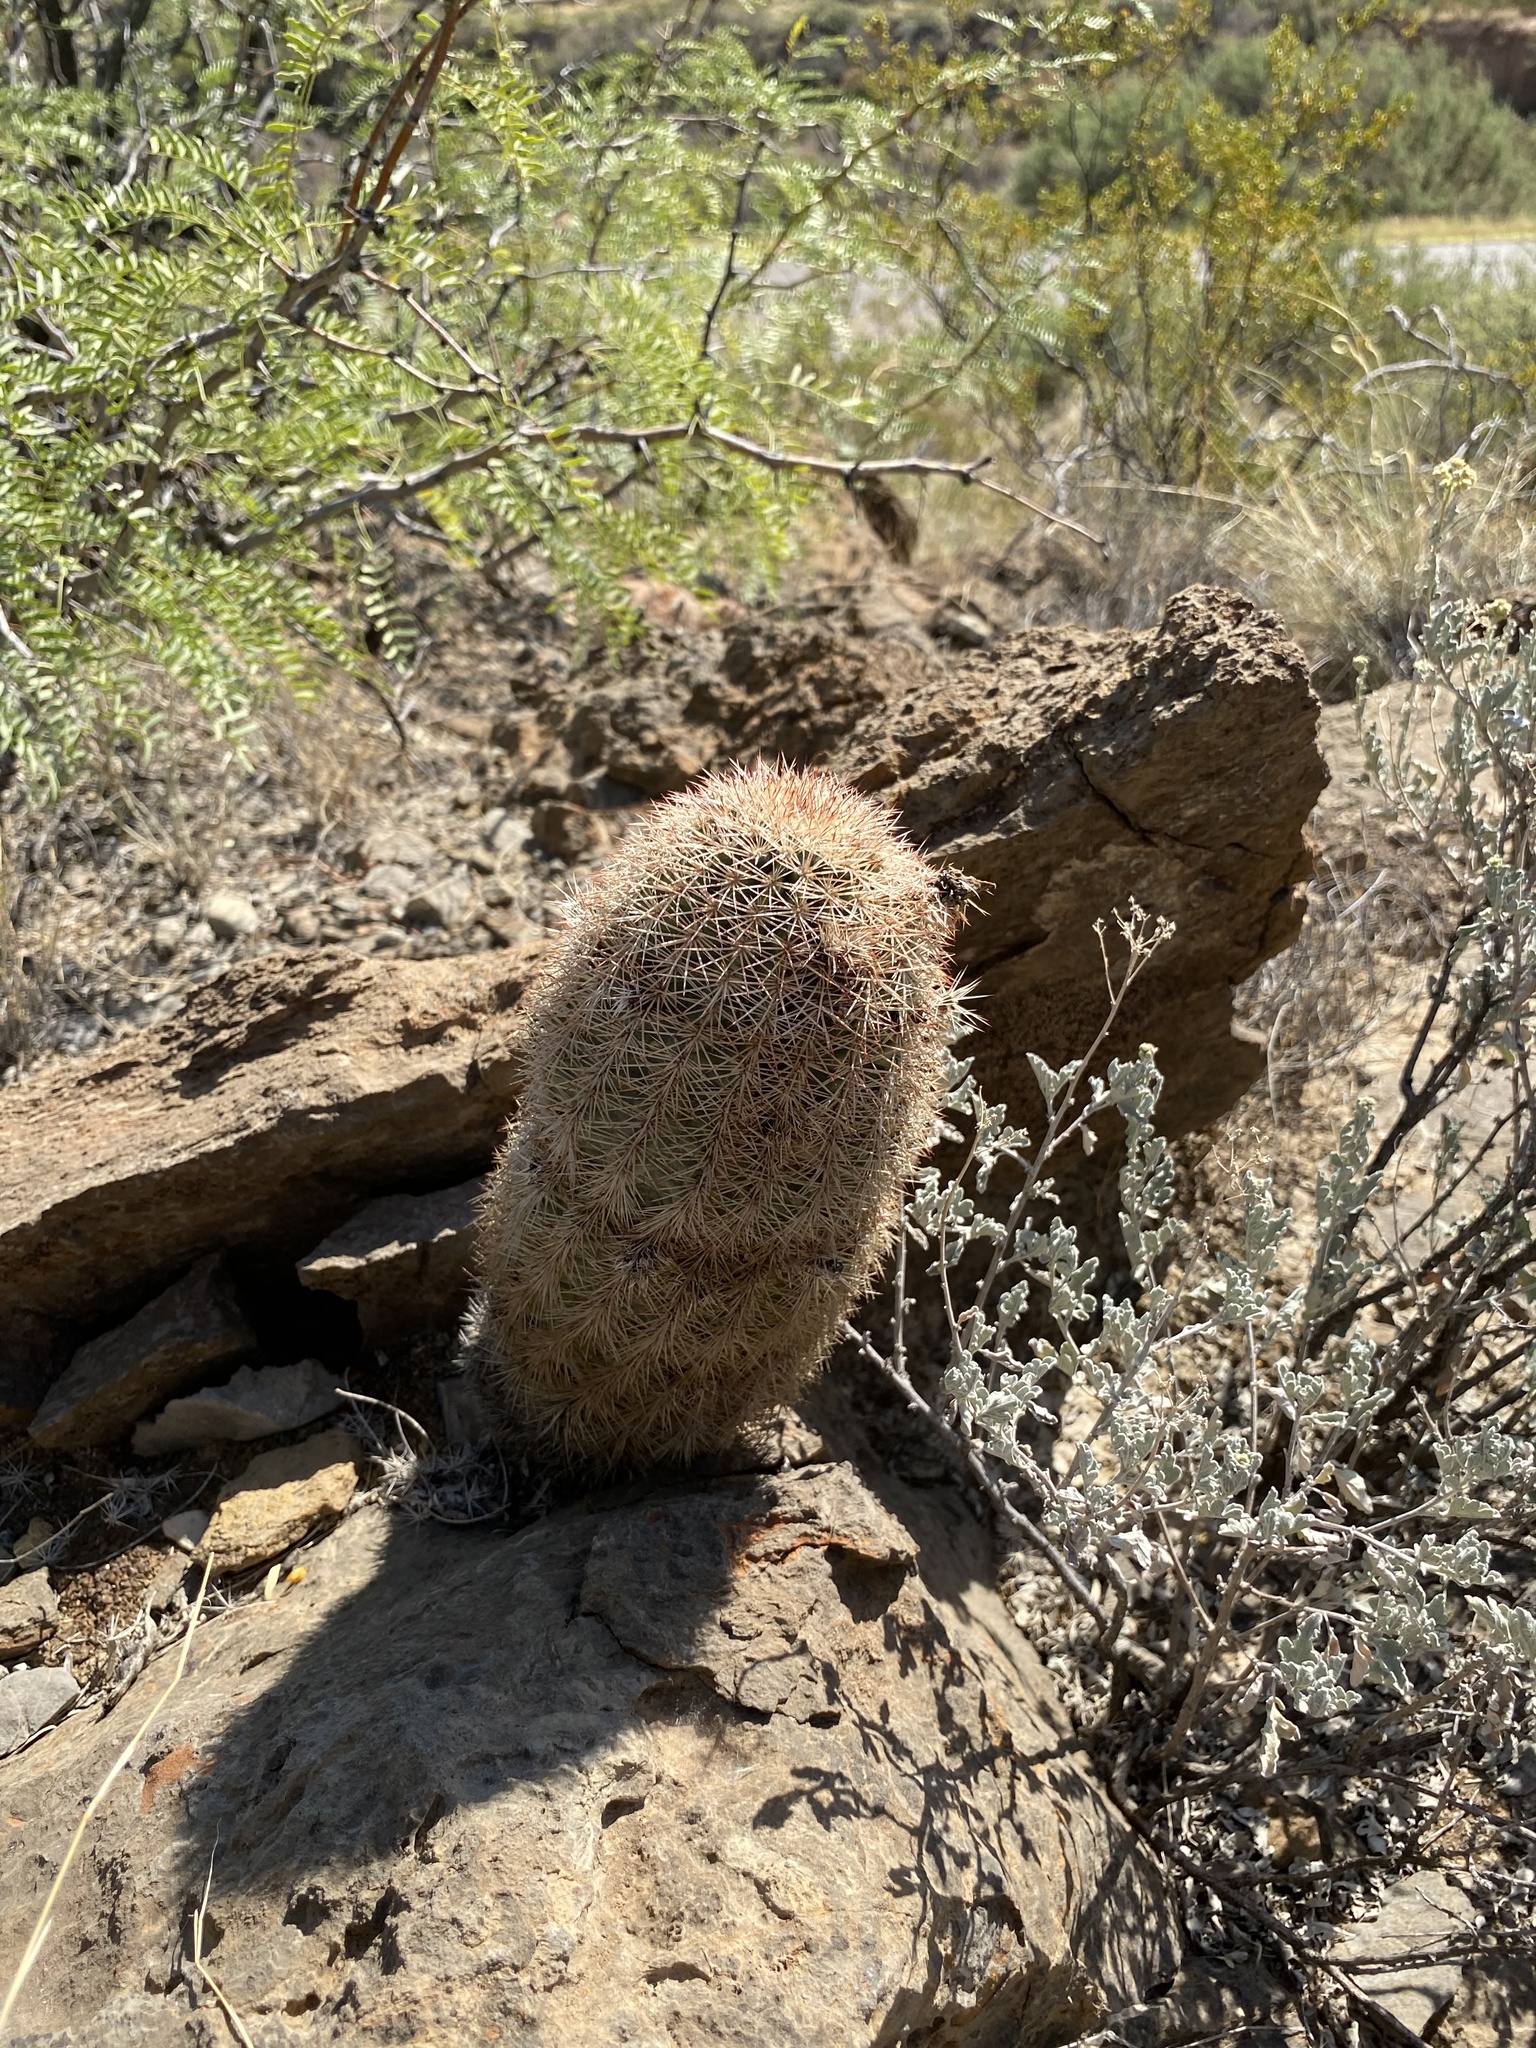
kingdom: Plantae
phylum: Tracheophyta
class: Magnoliopsida
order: Caryophyllales
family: Cactaceae
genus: Echinocereus
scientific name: Echinocereus dasyacanthus
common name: Spiny hedgehog cactus
